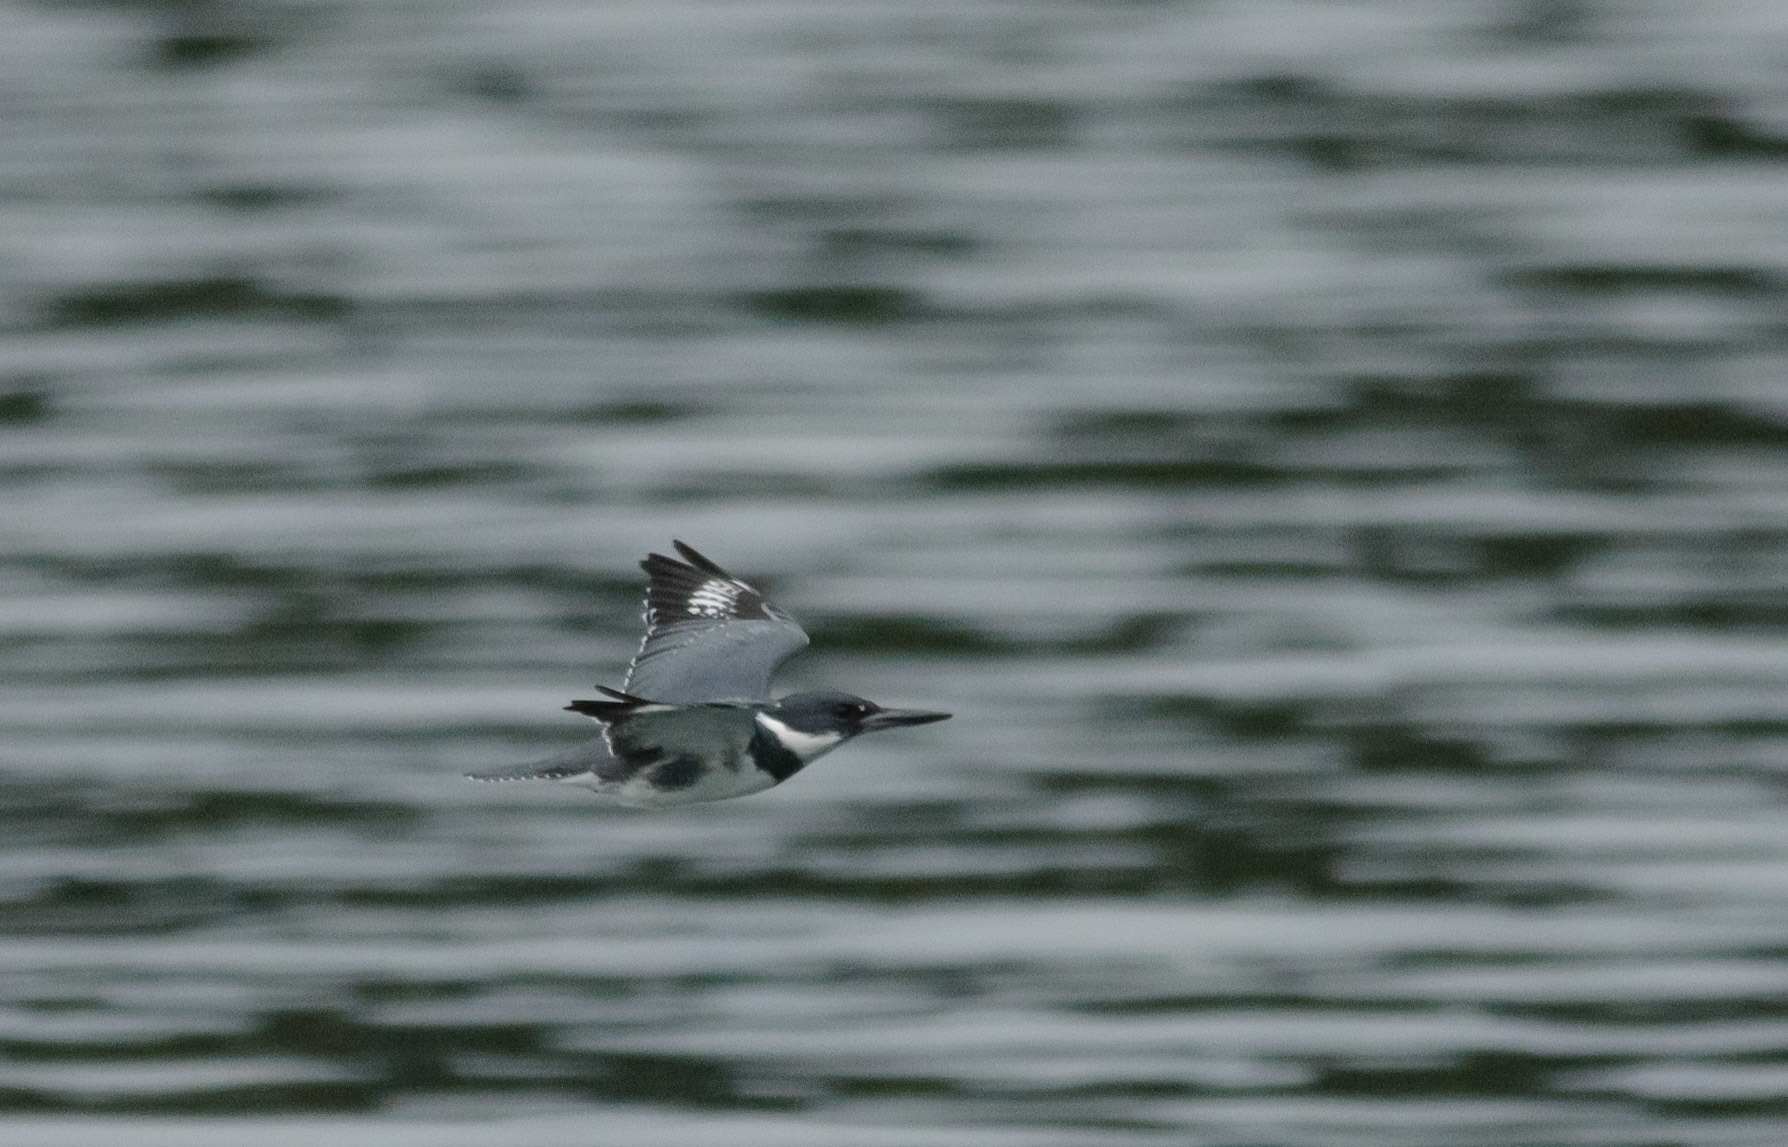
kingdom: Animalia
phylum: Chordata
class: Aves
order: Coraciiformes
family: Alcedinidae
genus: Megaceryle
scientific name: Megaceryle alcyon
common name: Belted kingfisher
